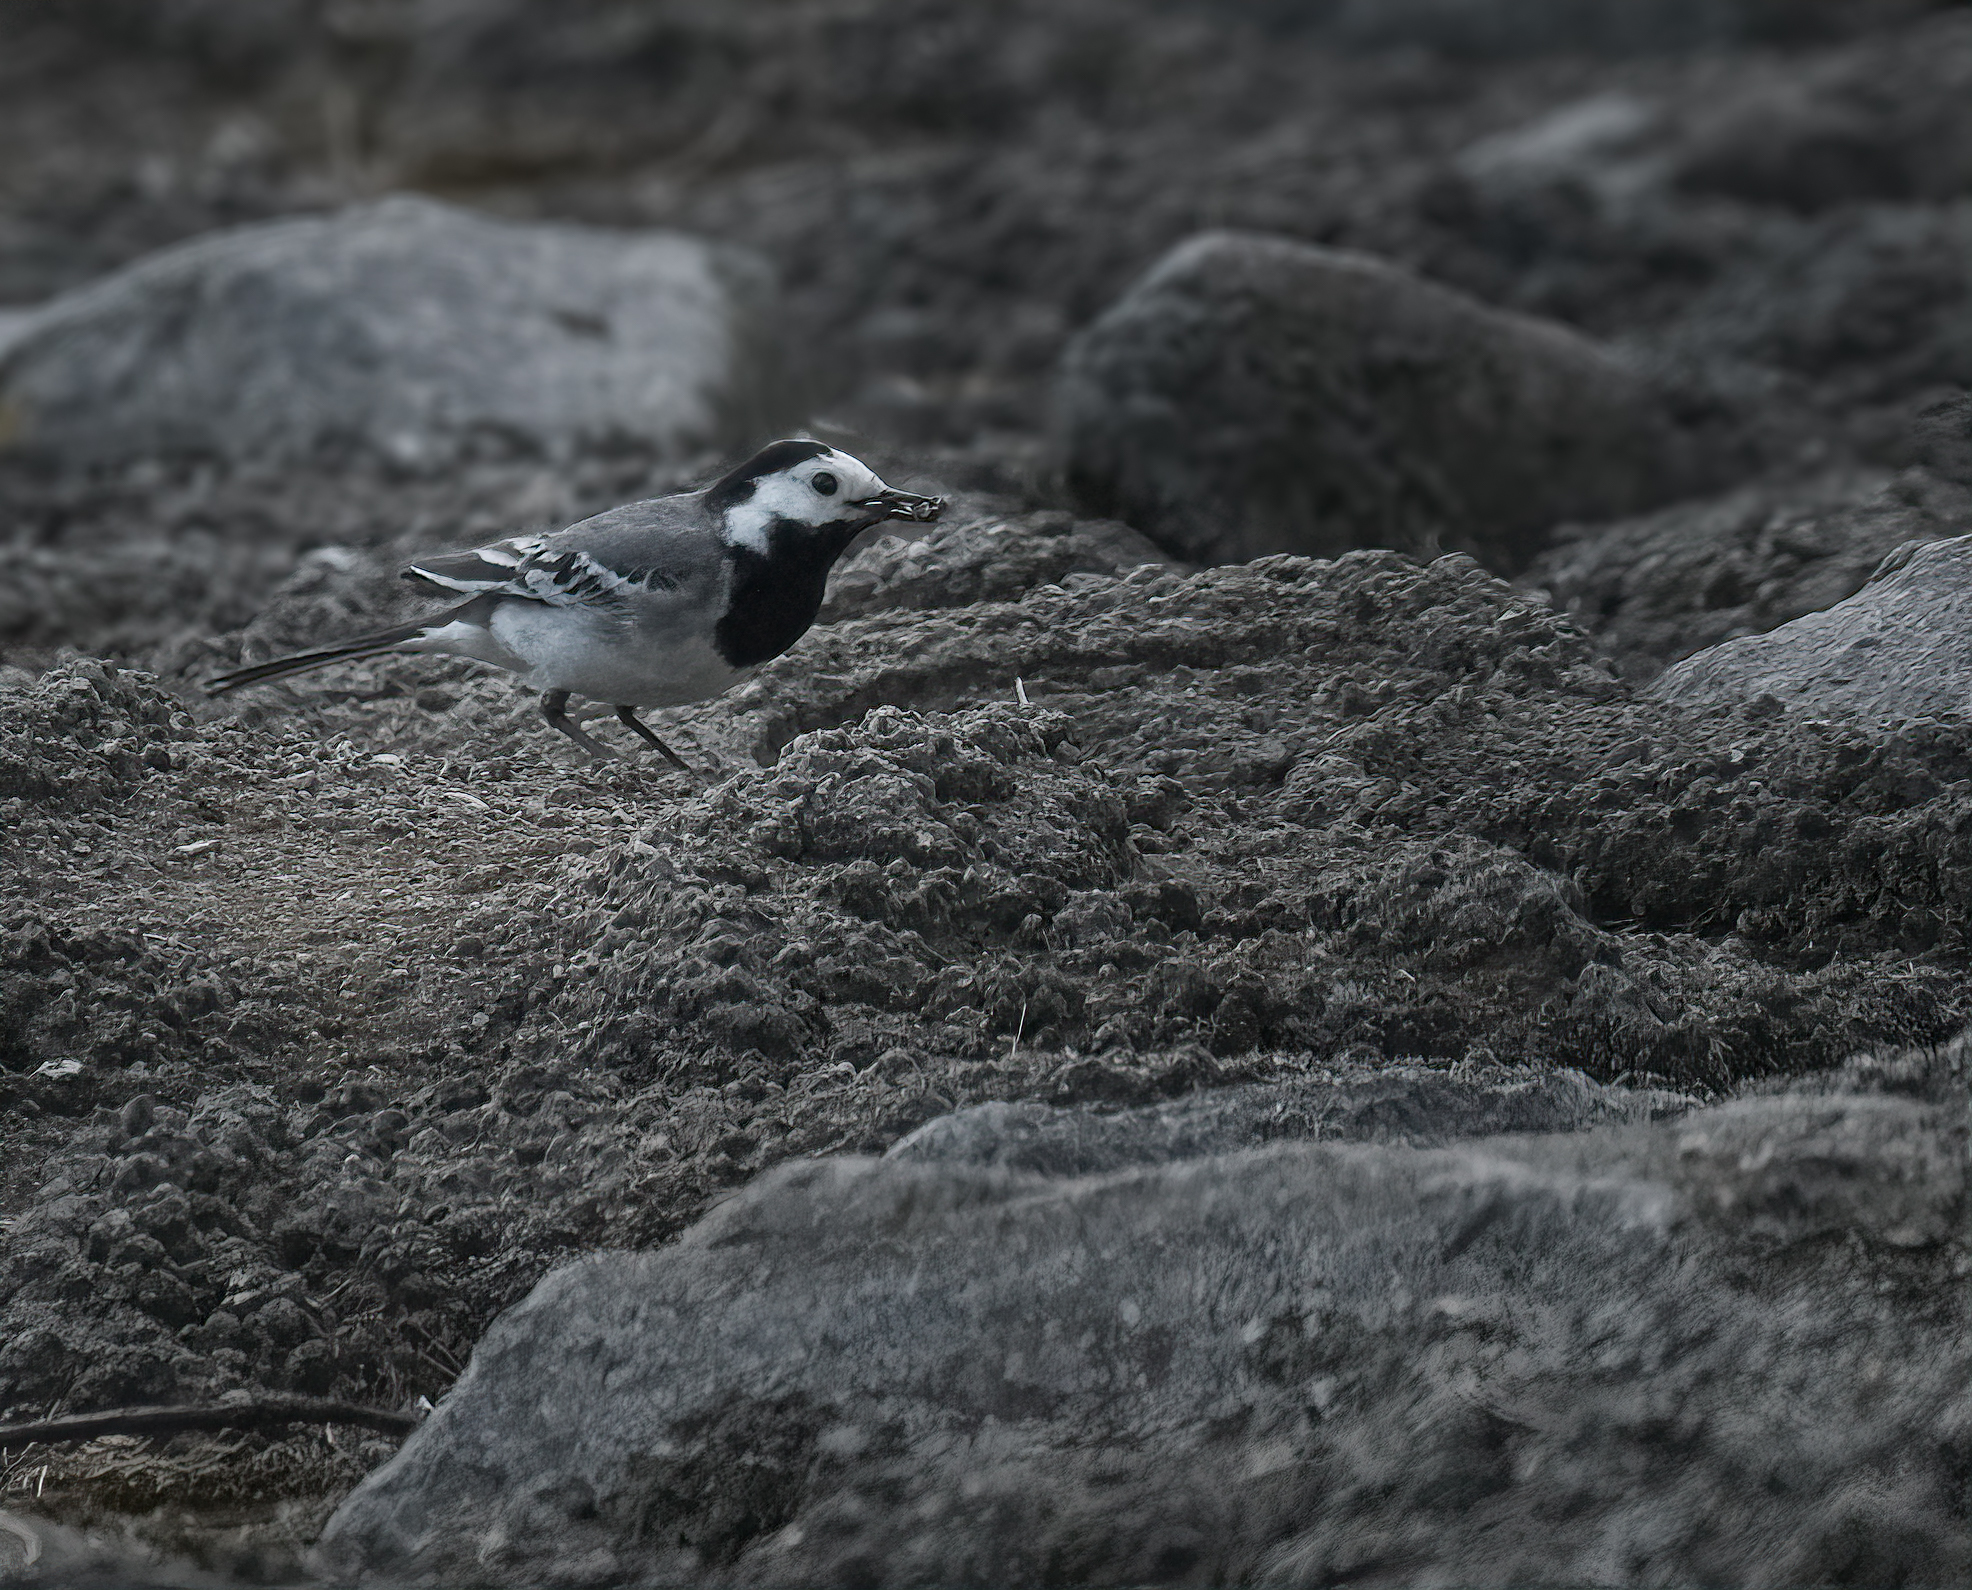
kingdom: Animalia
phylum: Chordata
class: Aves
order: Passeriformes
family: Motacillidae
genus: Motacilla
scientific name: Motacilla alba
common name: White wagtail
